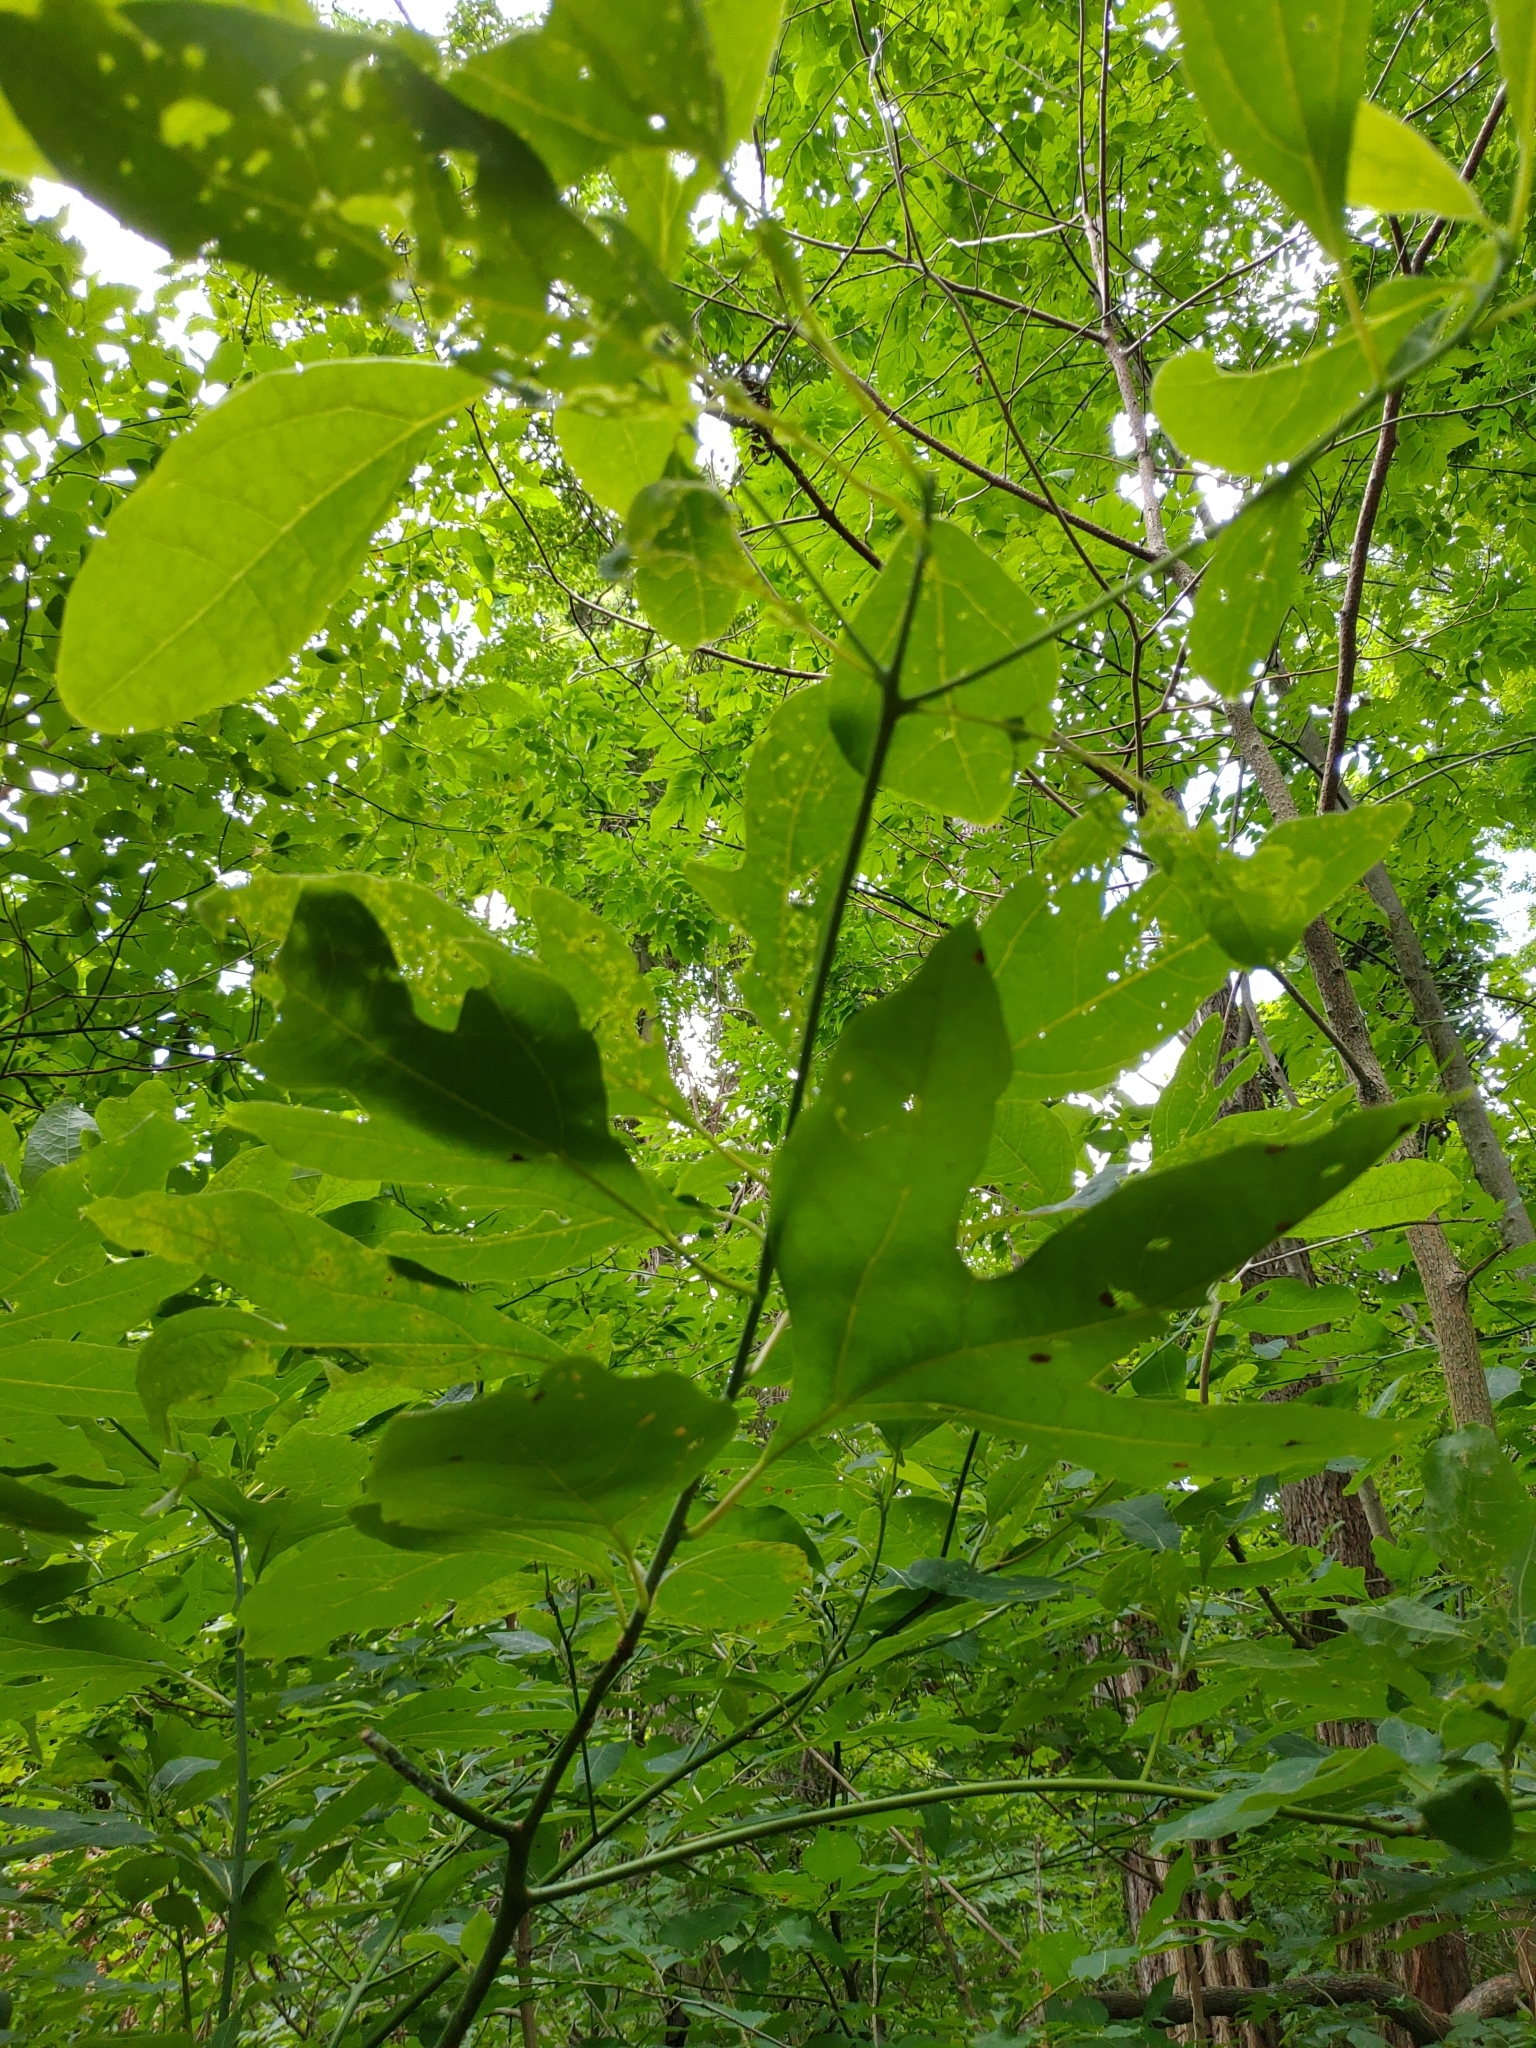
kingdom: Plantae
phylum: Tracheophyta
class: Magnoliopsida
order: Laurales
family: Lauraceae
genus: Sassafras
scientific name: Sassafras albidum
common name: Sassafras
